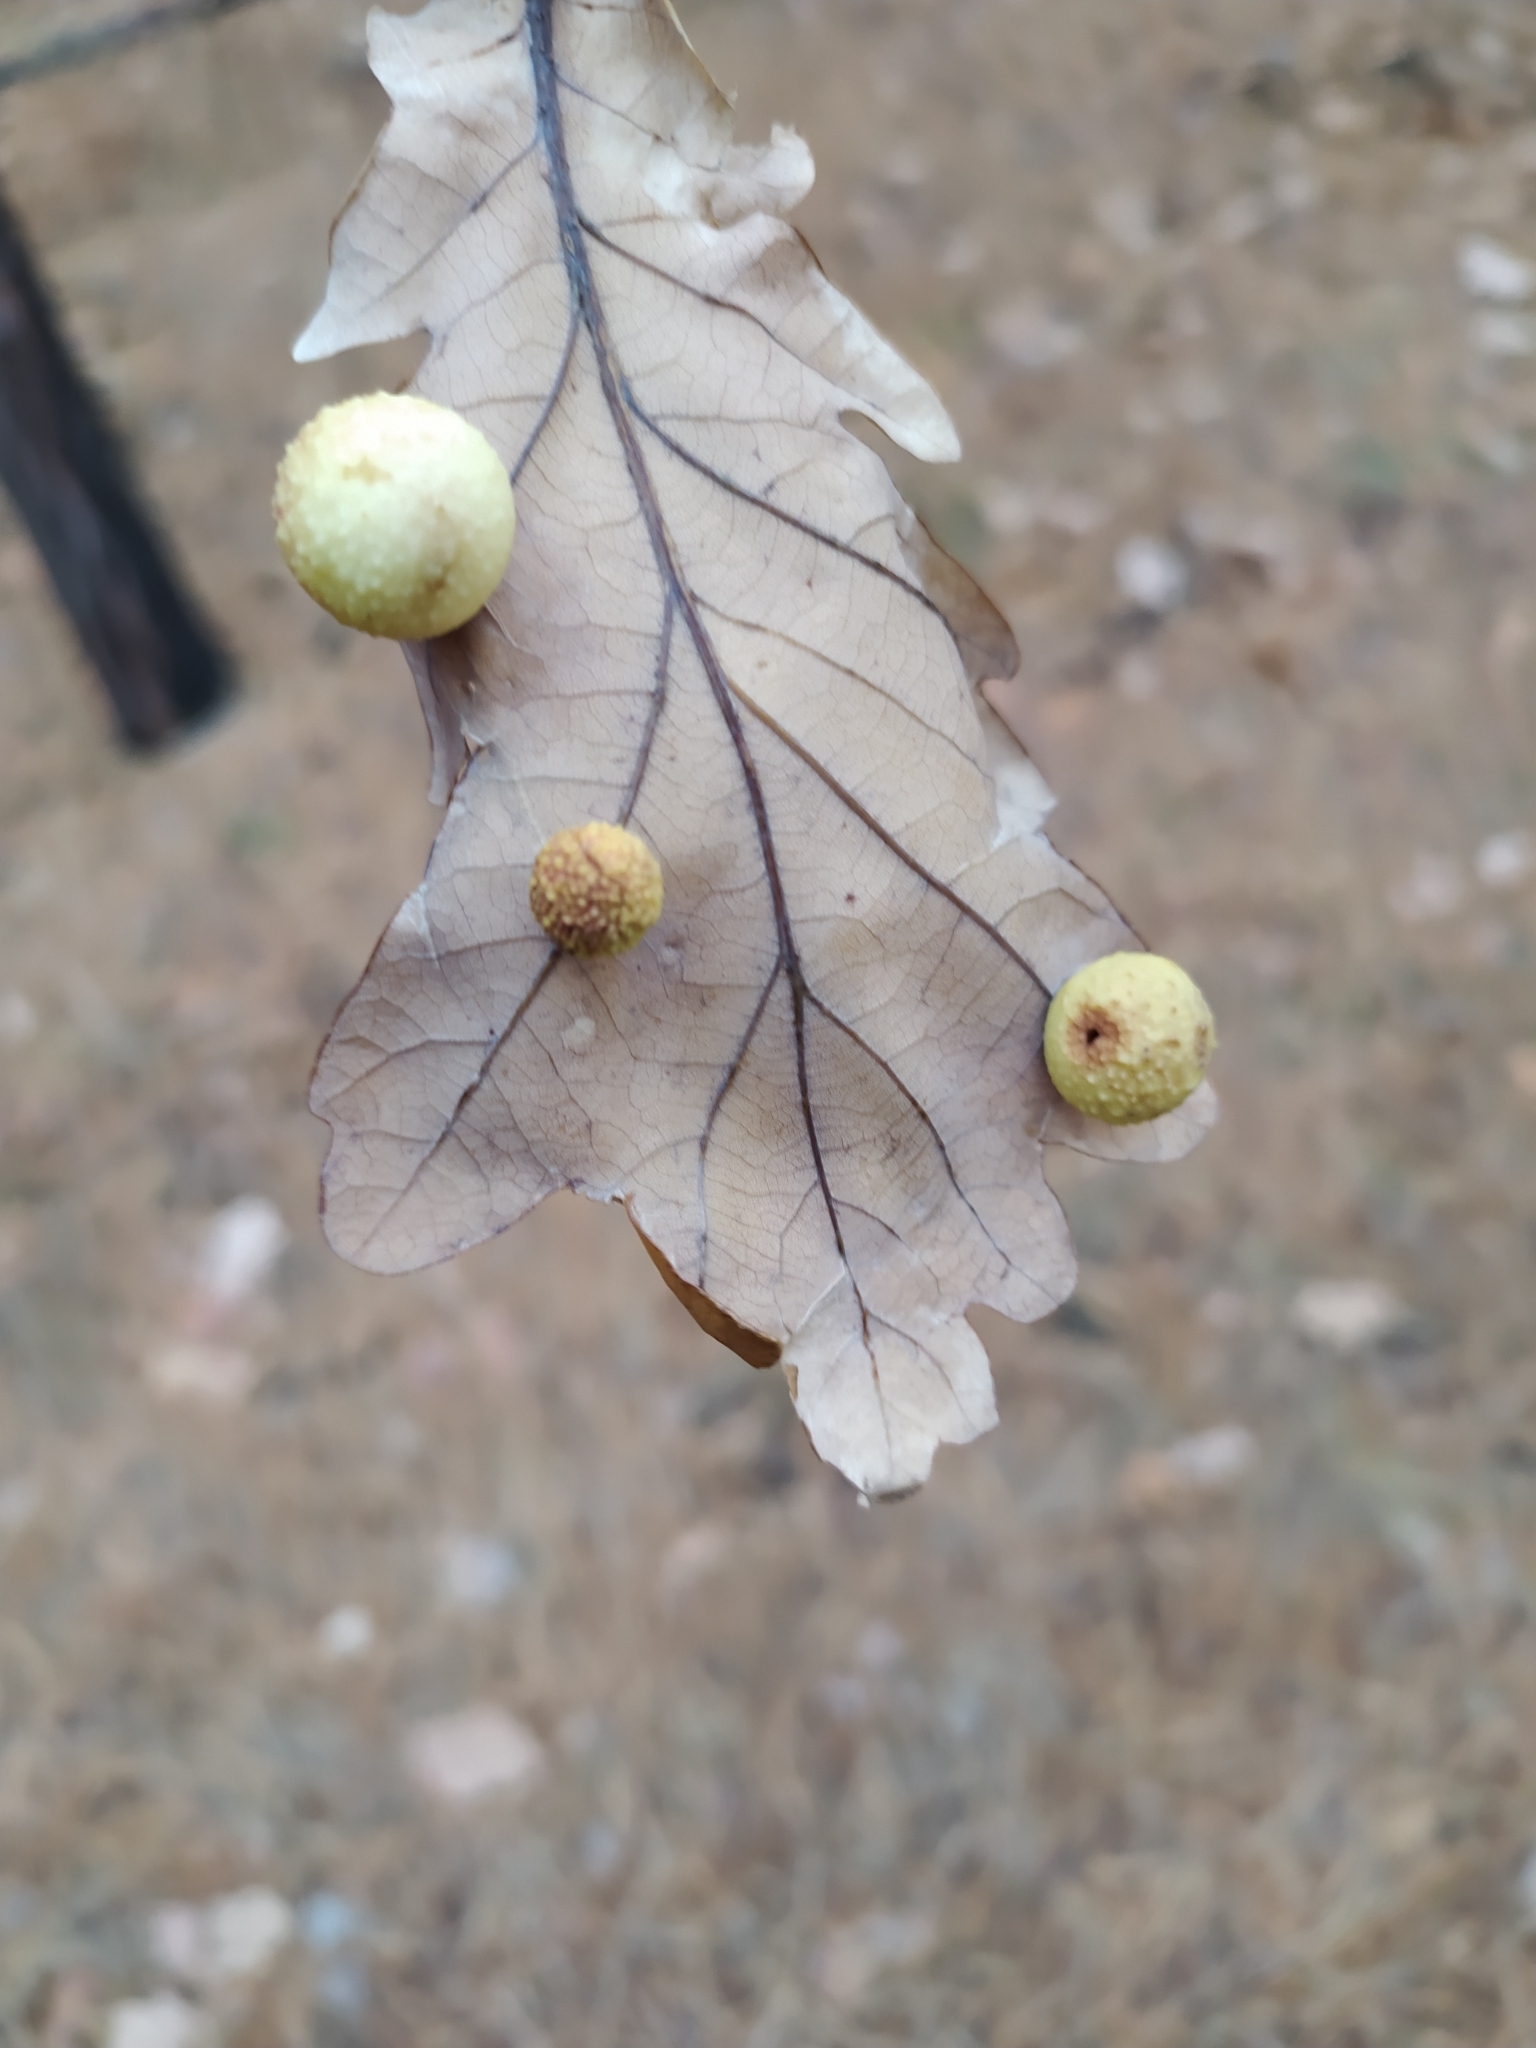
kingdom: Animalia
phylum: Arthropoda
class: Insecta
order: Hymenoptera
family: Cynipidae
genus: Cynips
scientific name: Cynips quercusfolii
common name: Cherry gall
